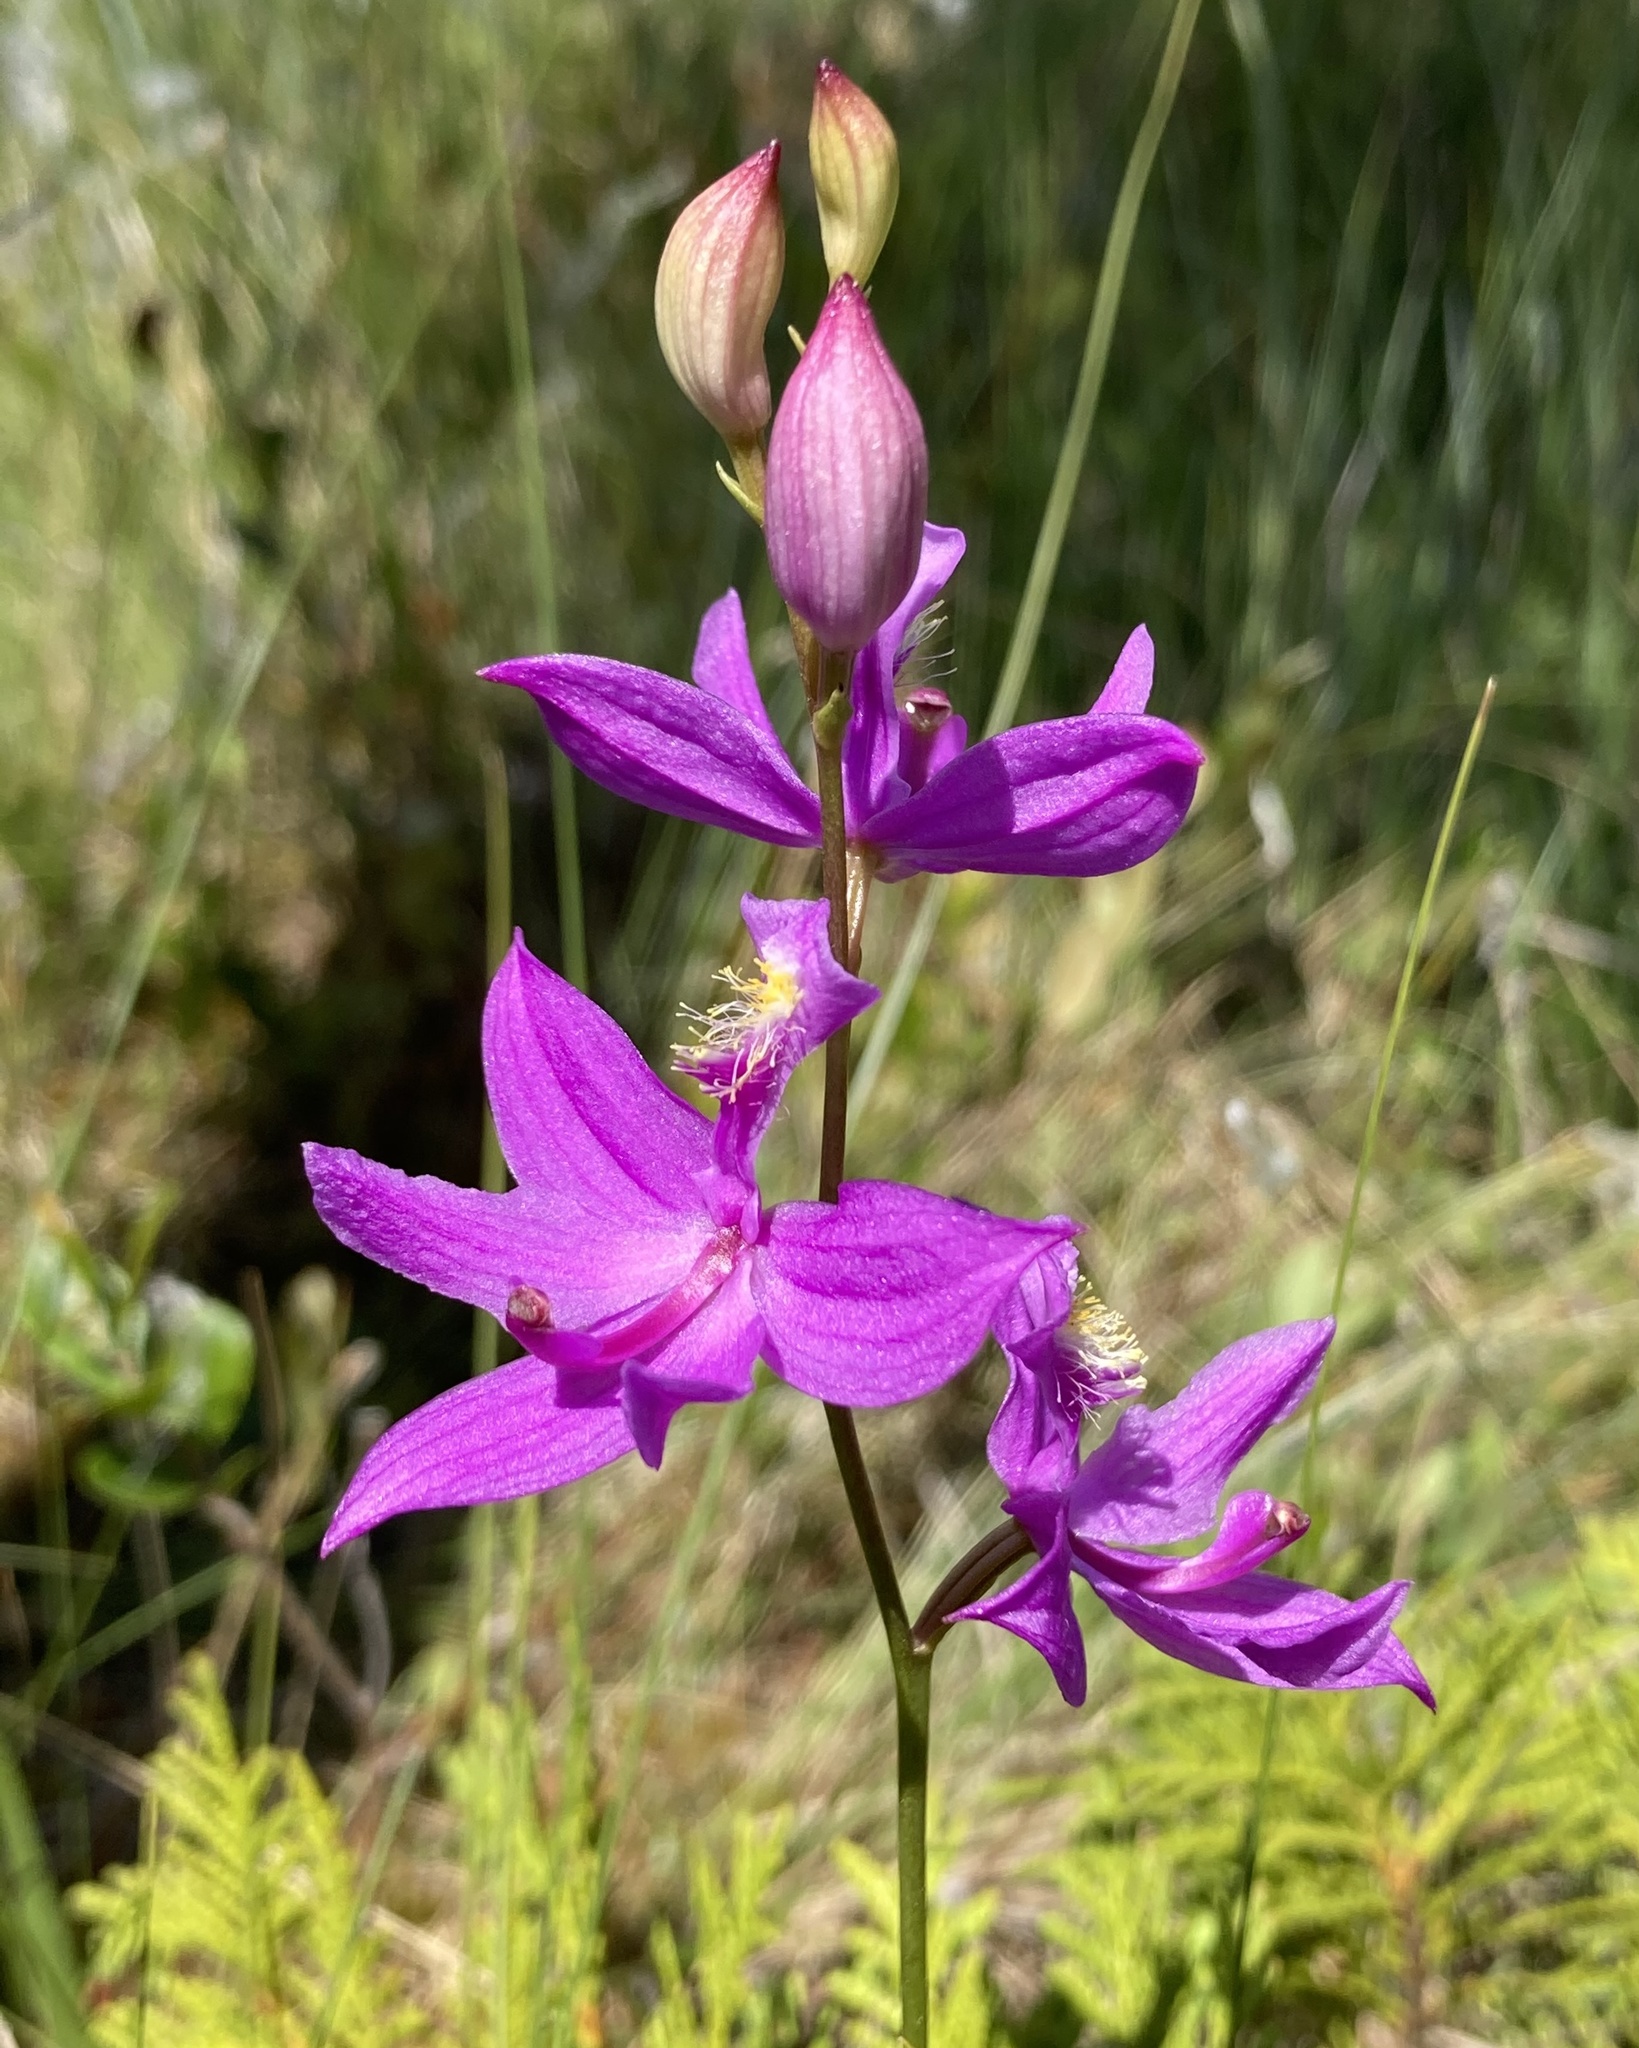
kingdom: Plantae
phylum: Tracheophyta
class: Liliopsida
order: Asparagales
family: Orchidaceae
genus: Calopogon
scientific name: Calopogon tuberosus
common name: Grass-pink
